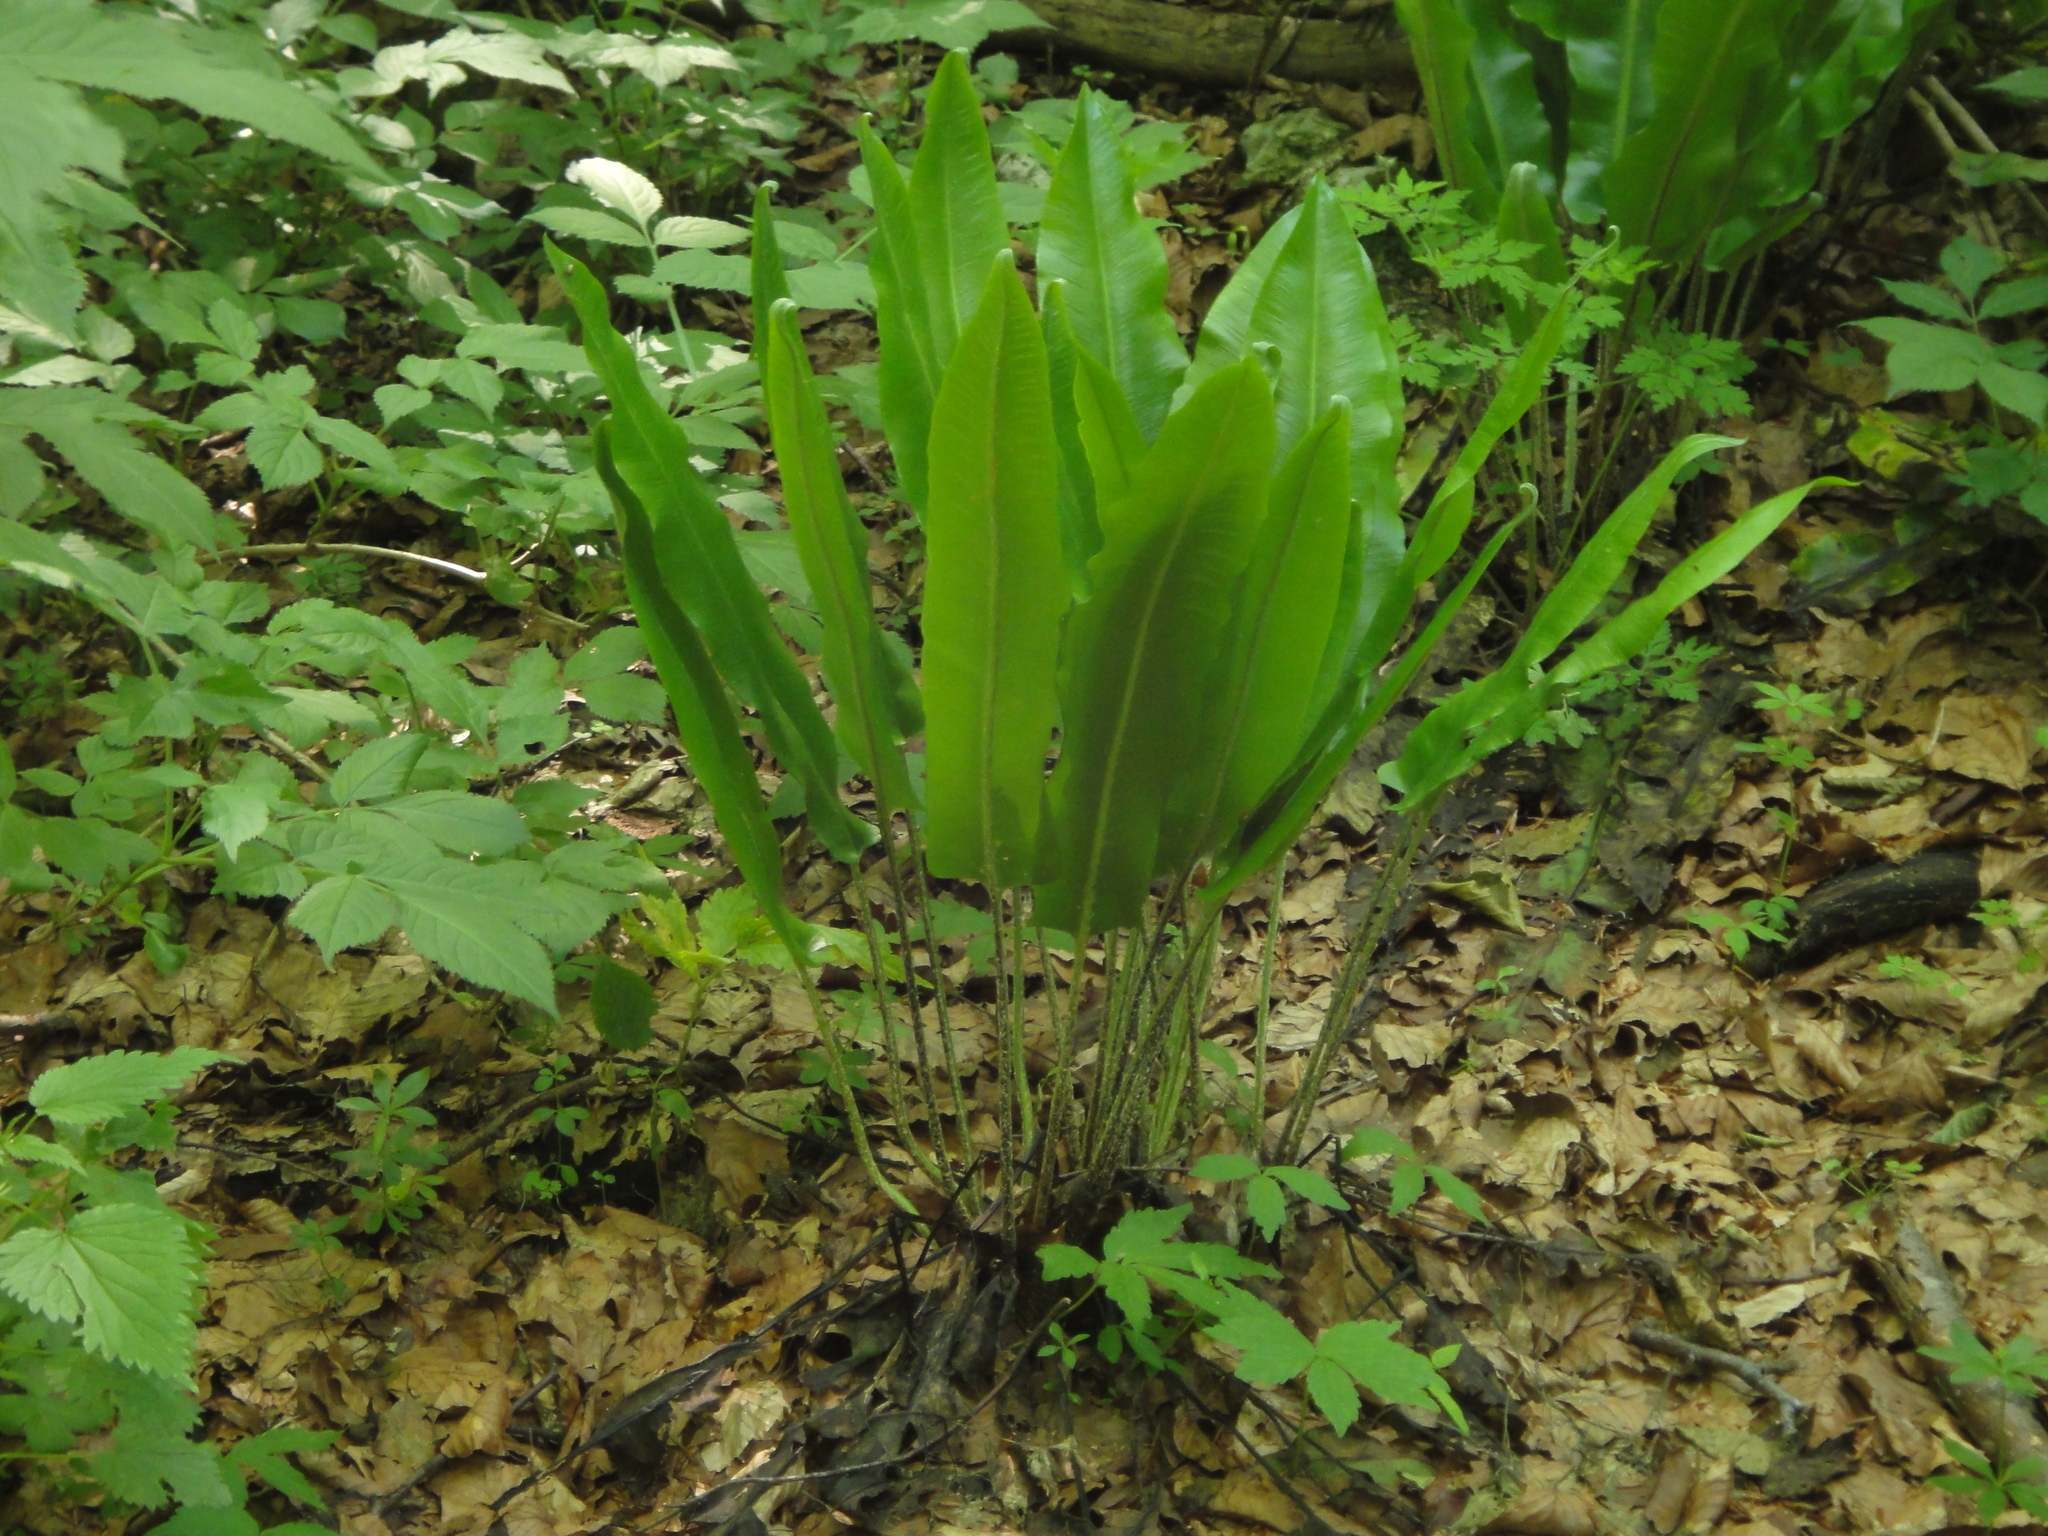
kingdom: Plantae
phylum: Tracheophyta
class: Polypodiopsida
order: Polypodiales
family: Aspleniaceae
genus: Asplenium
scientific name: Asplenium scolopendrium
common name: Hart's-tongue fern
